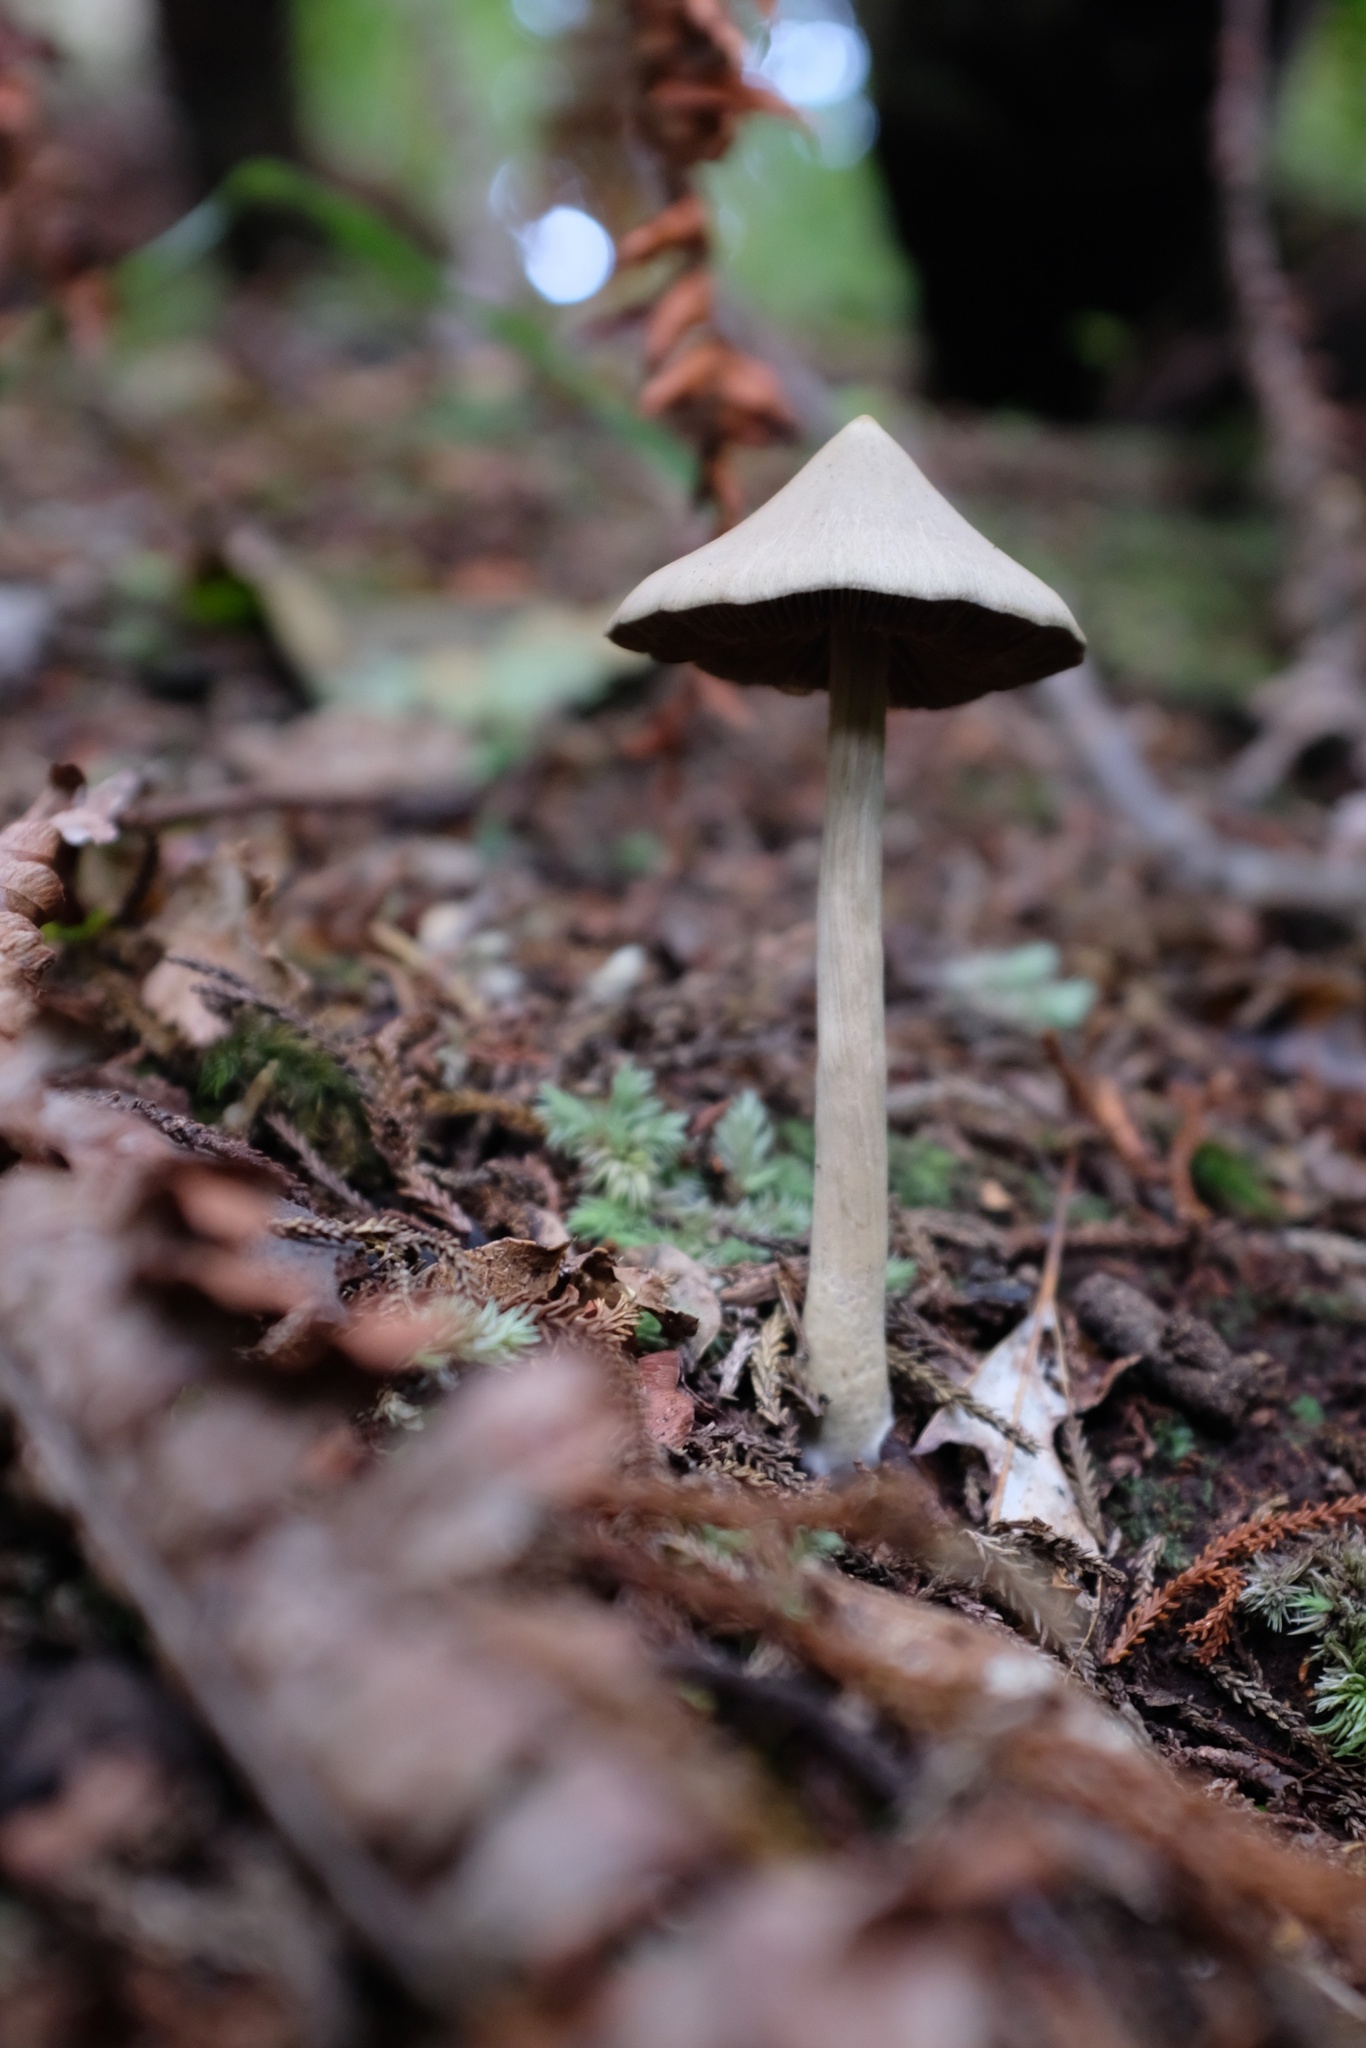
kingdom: Fungi
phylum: Basidiomycota
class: Agaricomycetes
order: Agaricales
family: Entolomataceae
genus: Entoloma
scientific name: Entoloma canoconicum
